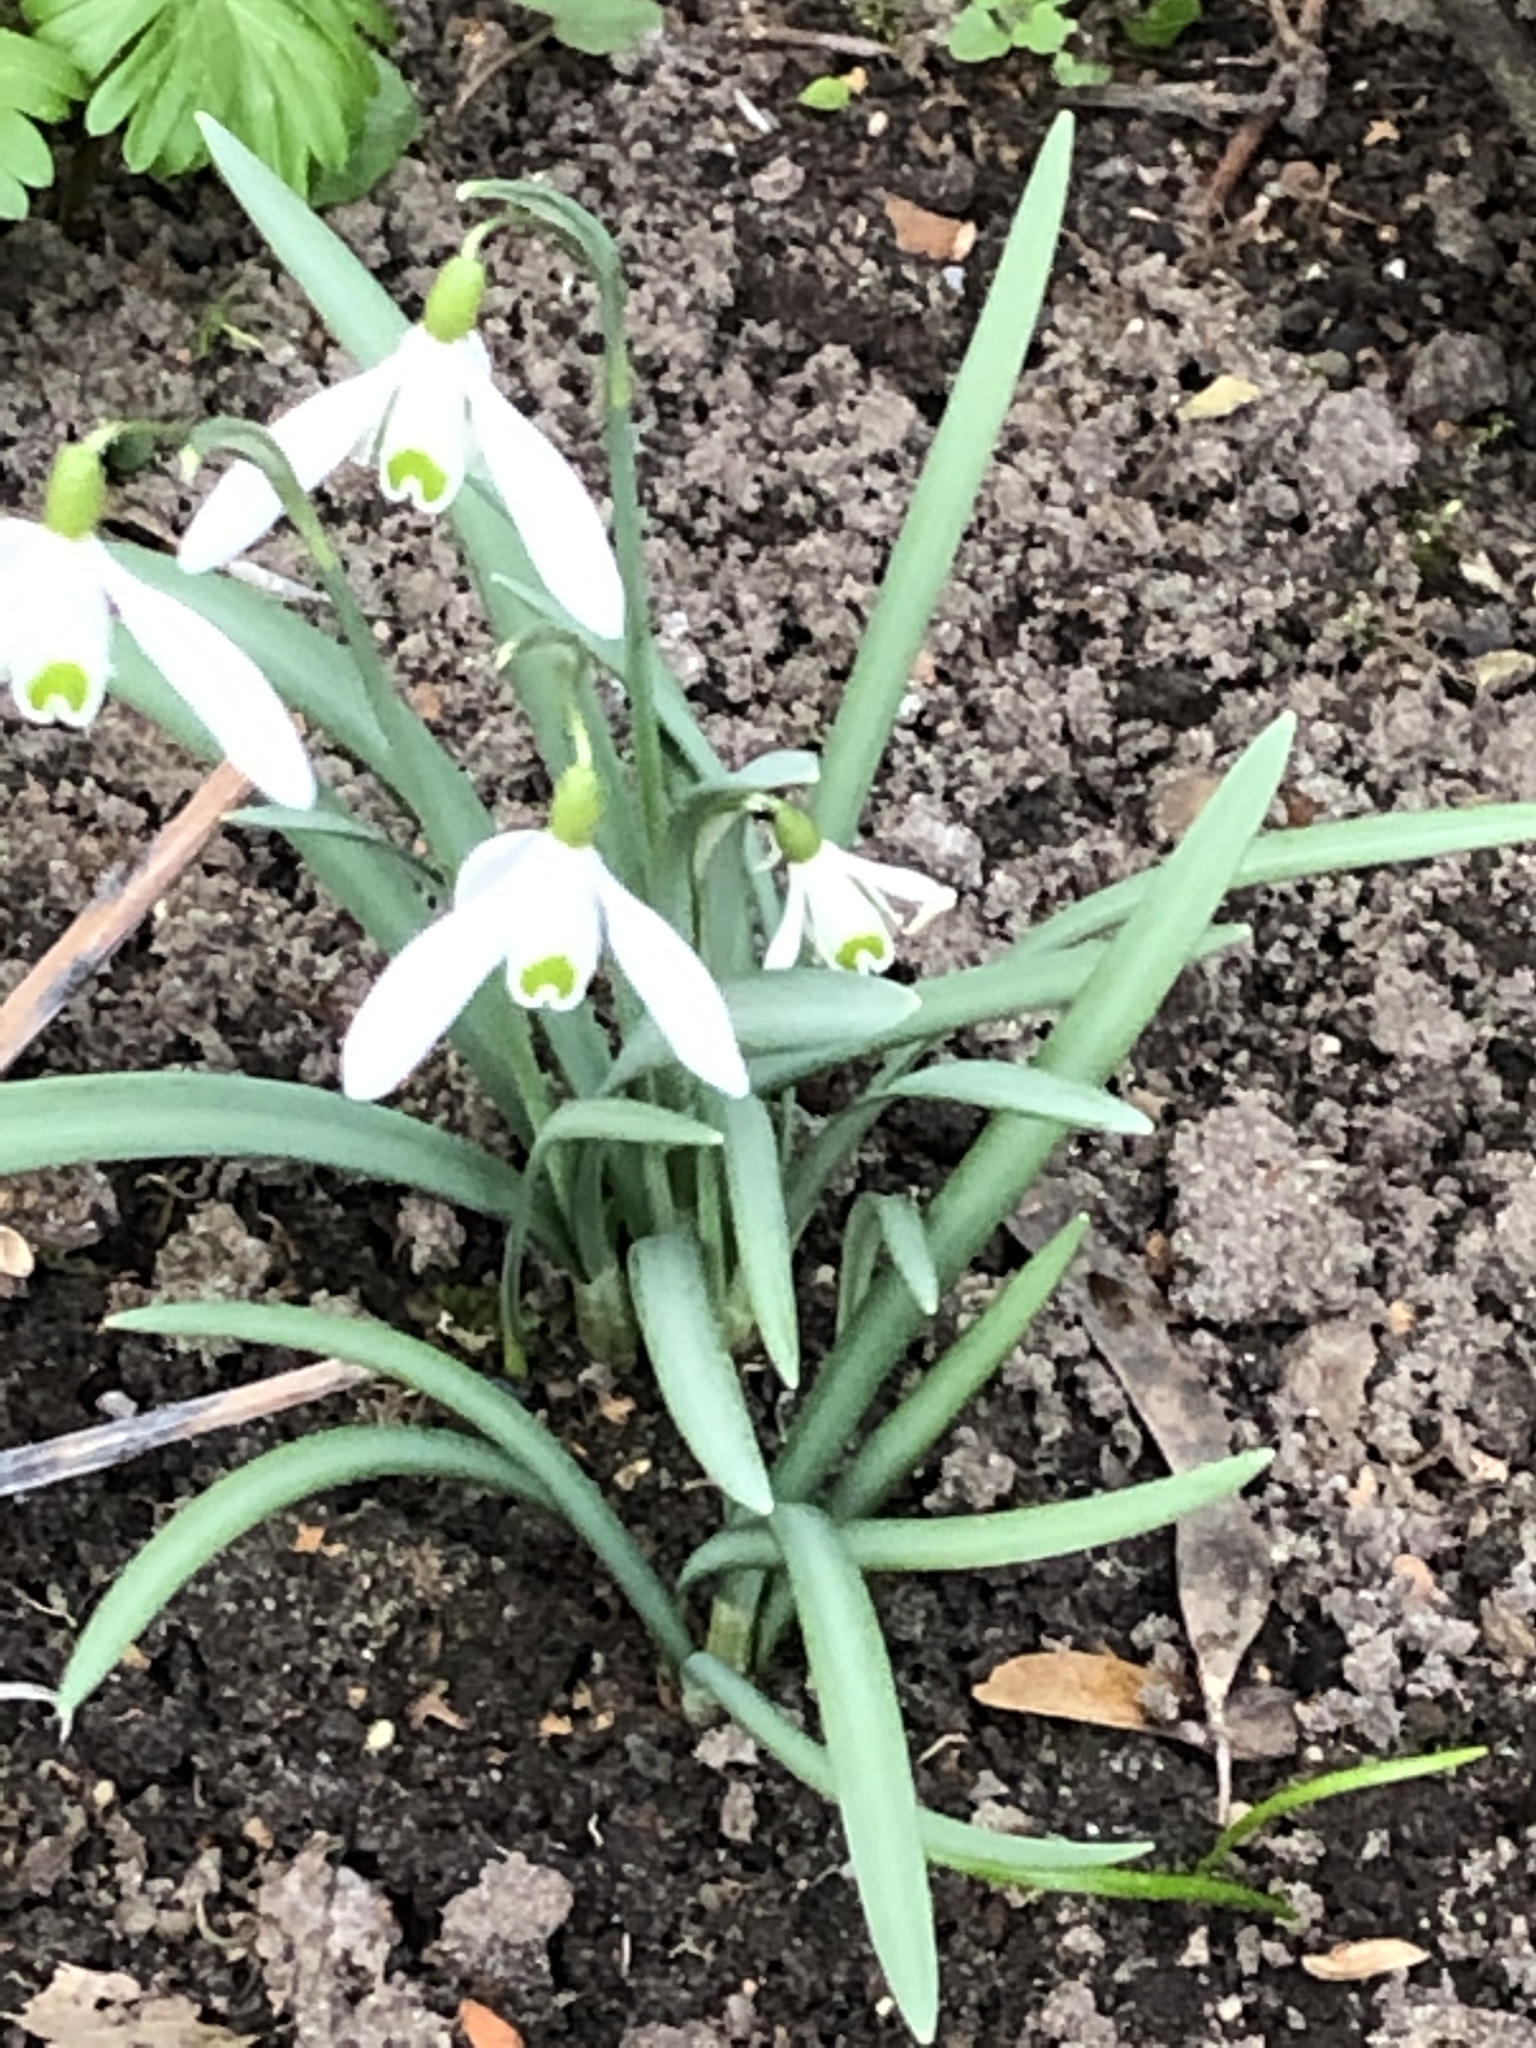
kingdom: Plantae
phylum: Tracheophyta
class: Liliopsida
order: Asparagales
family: Amaryllidaceae
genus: Galanthus
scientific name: Galanthus nivalis
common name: Snowdrop
